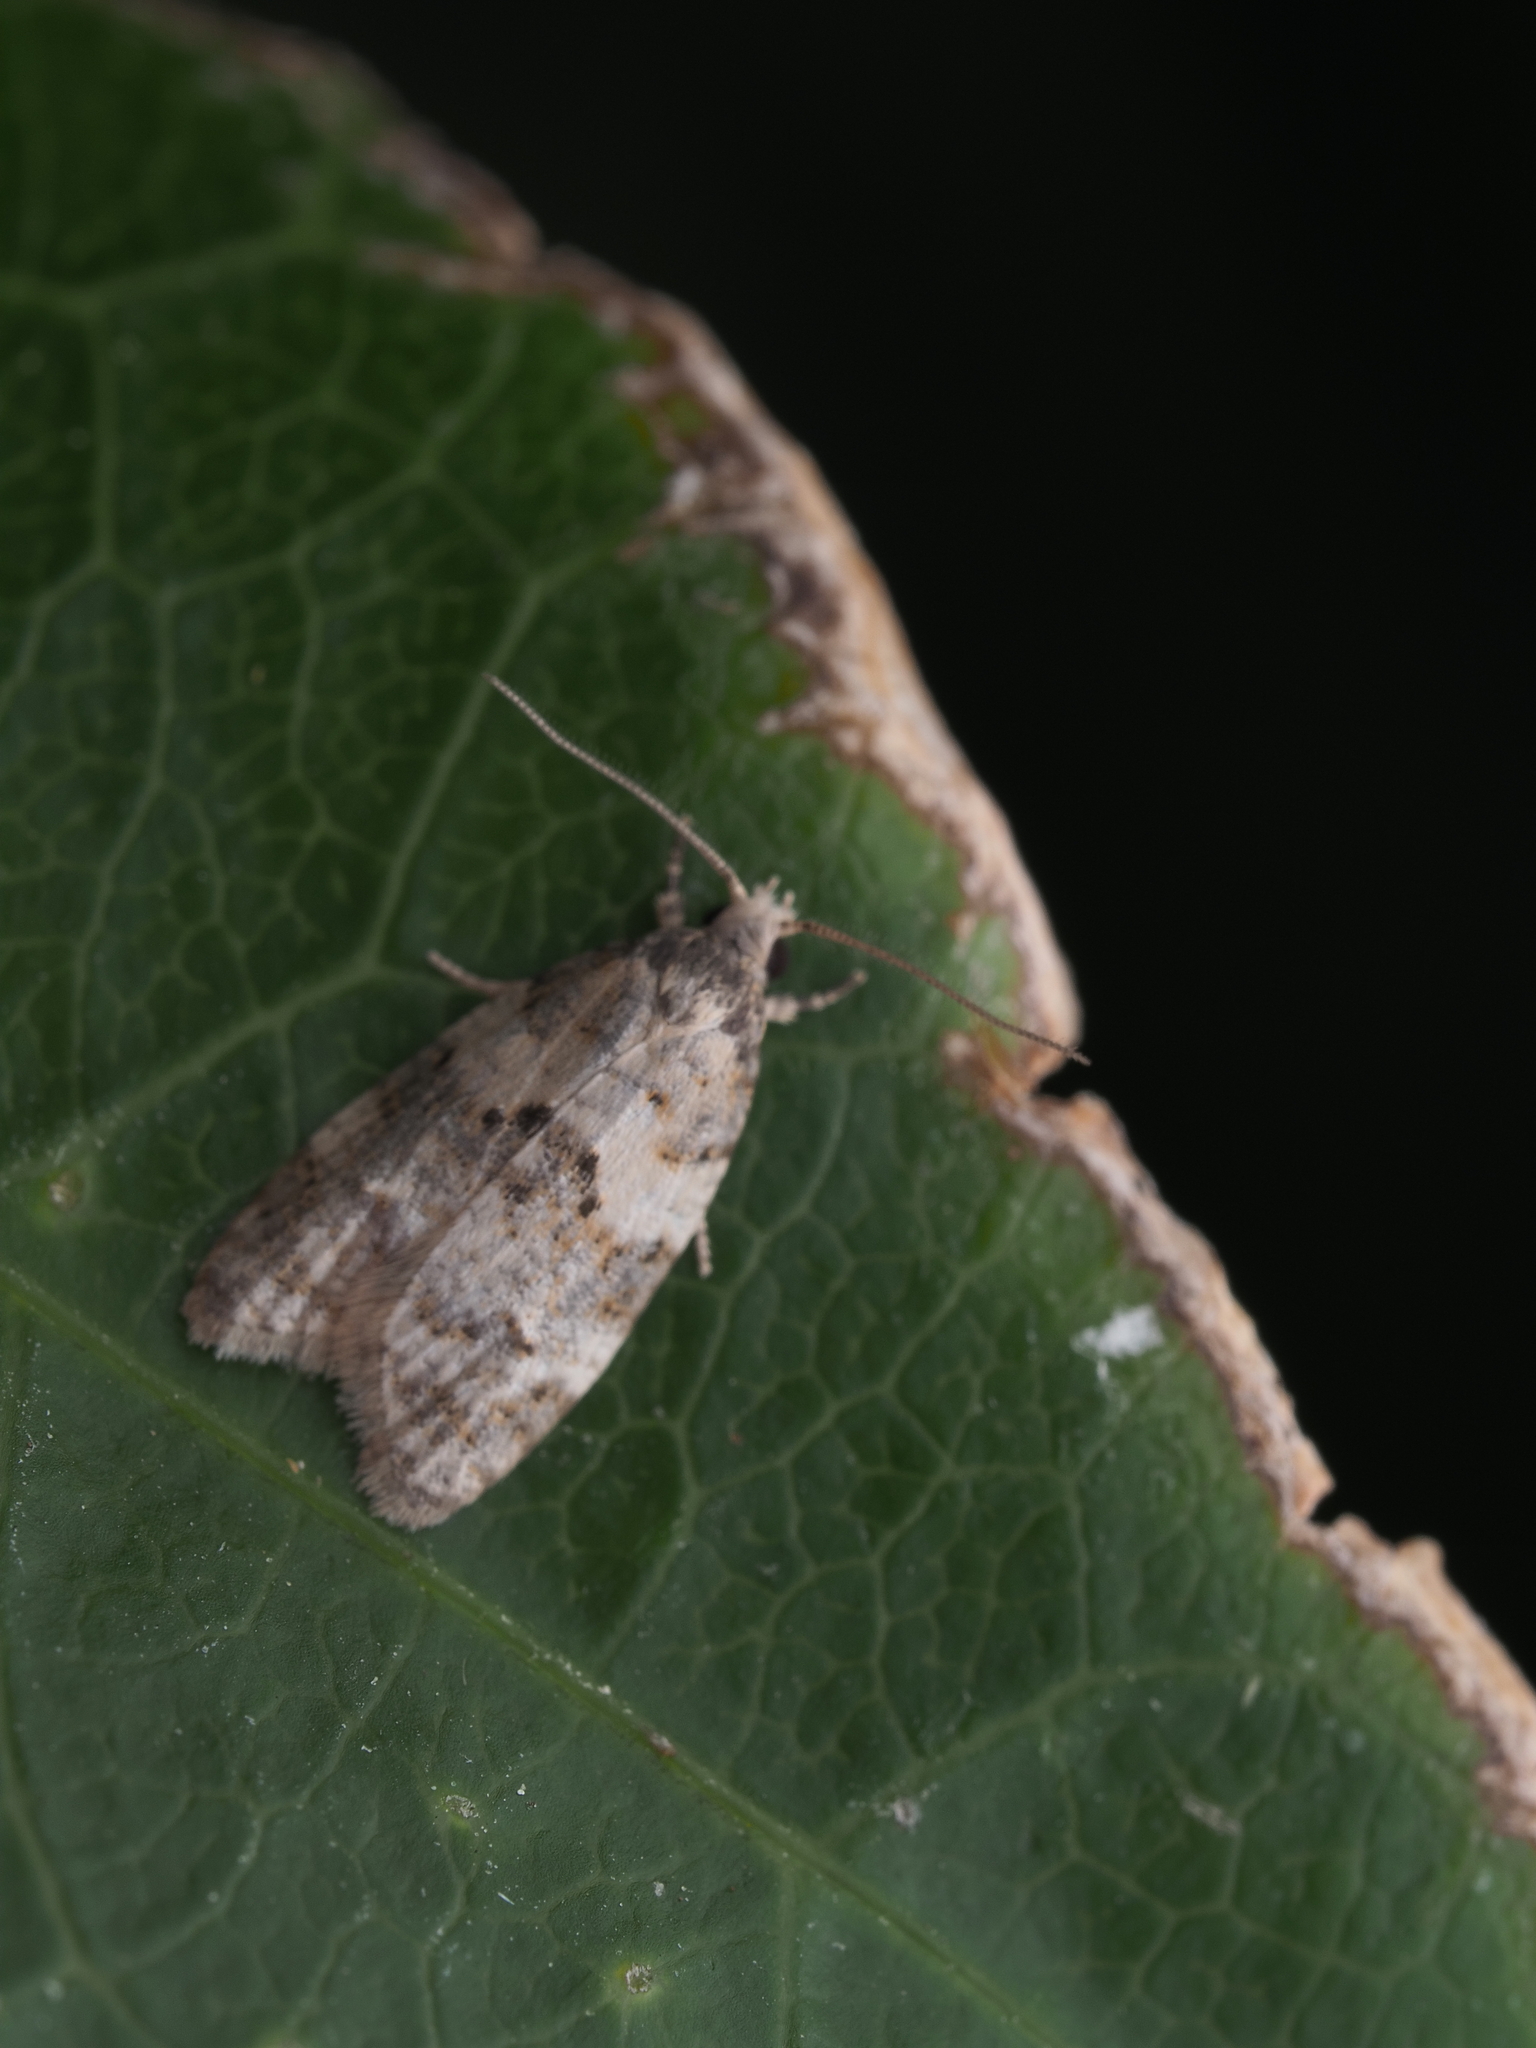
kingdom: Animalia
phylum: Arthropoda
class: Insecta
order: Lepidoptera
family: Tortricidae
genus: Dipterina
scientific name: Dipterina imbriferana
